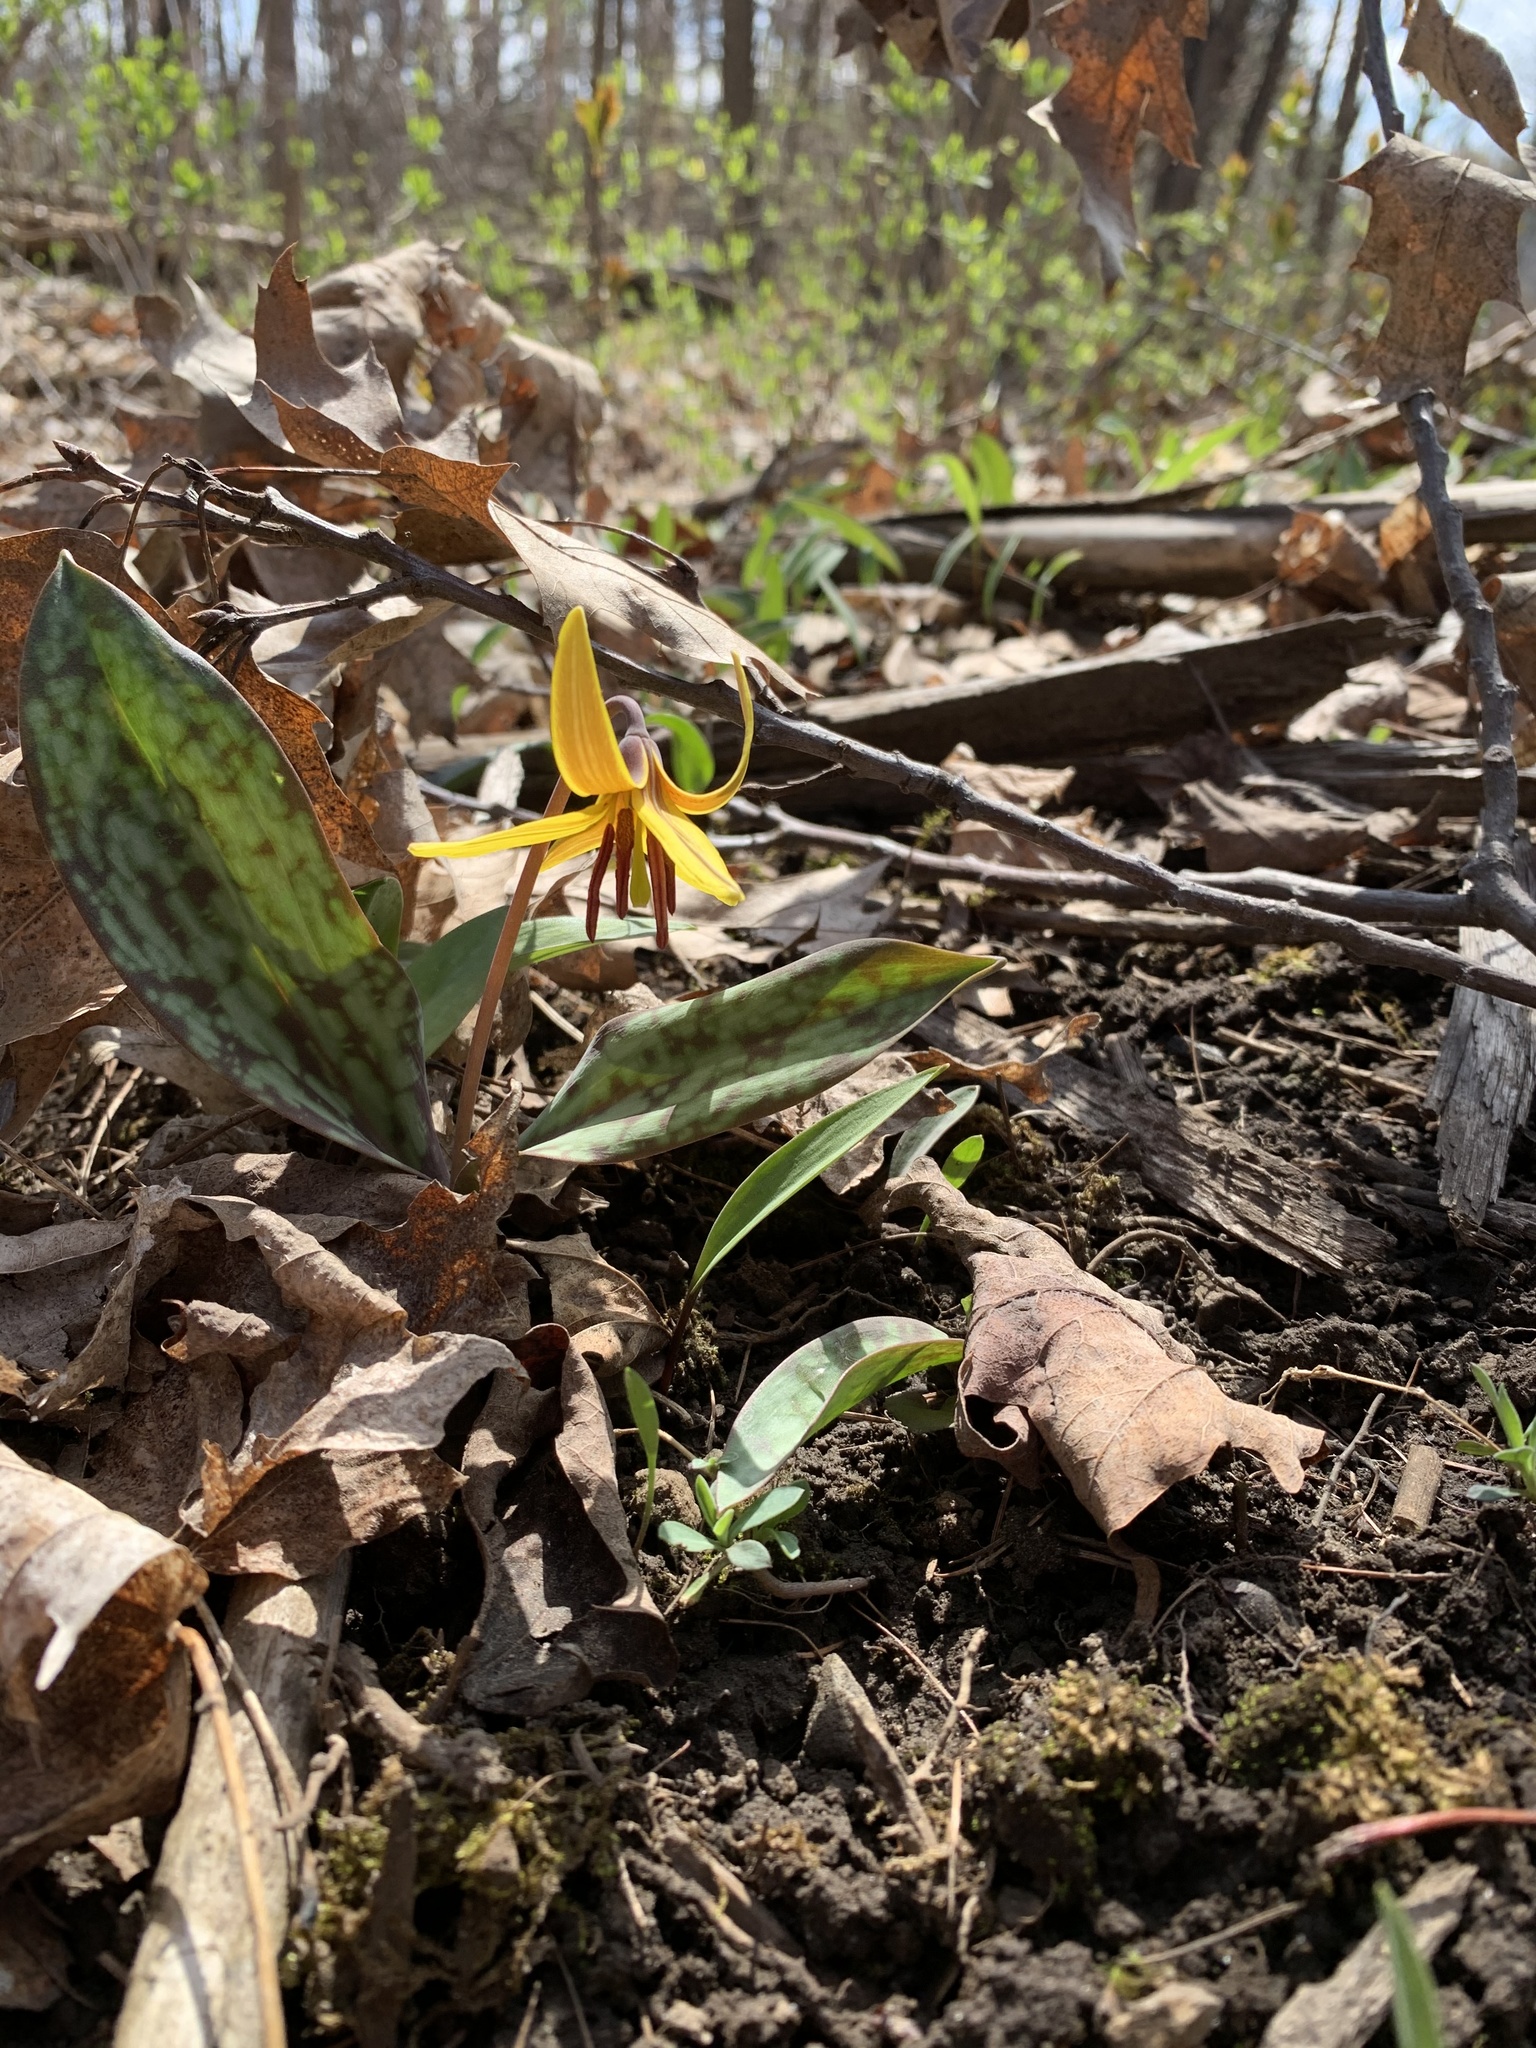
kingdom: Plantae
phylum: Tracheophyta
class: Liliopsida
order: Liliales
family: Liliaceae
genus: Erythronium
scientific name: Erythronium americanum
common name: Yellow adder's-tongue
